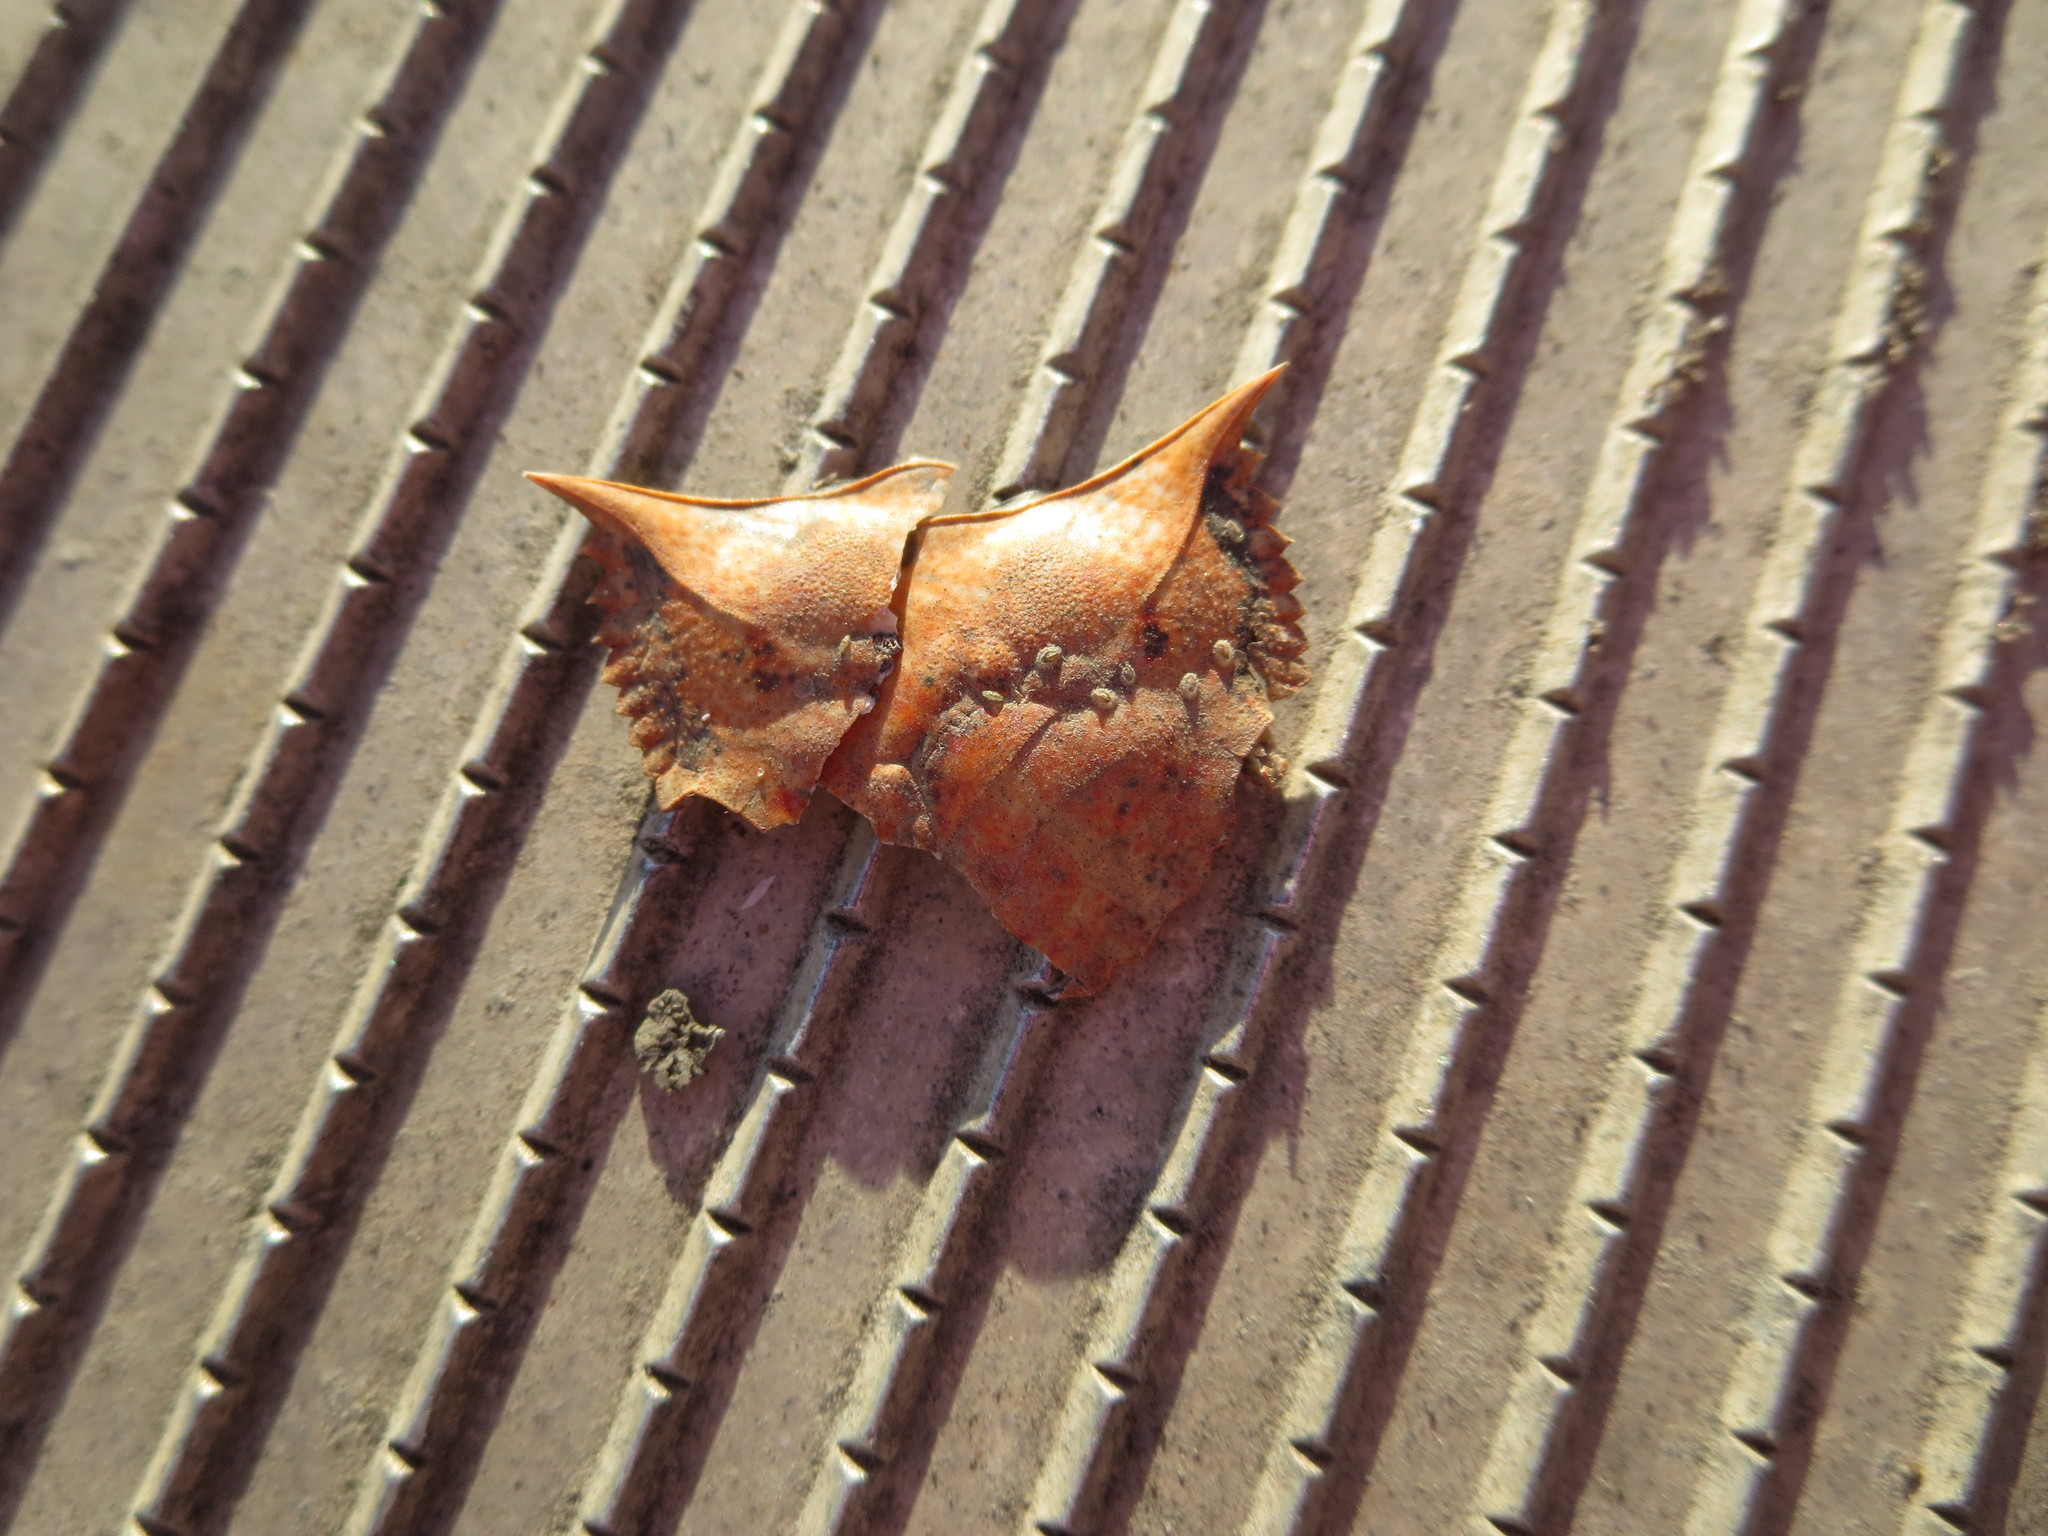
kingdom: Animalia
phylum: Arthropoda
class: Malacostraca
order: Decapoda
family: Portunidae
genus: Callinectes
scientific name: Callinectes sapidus
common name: Blue crab
